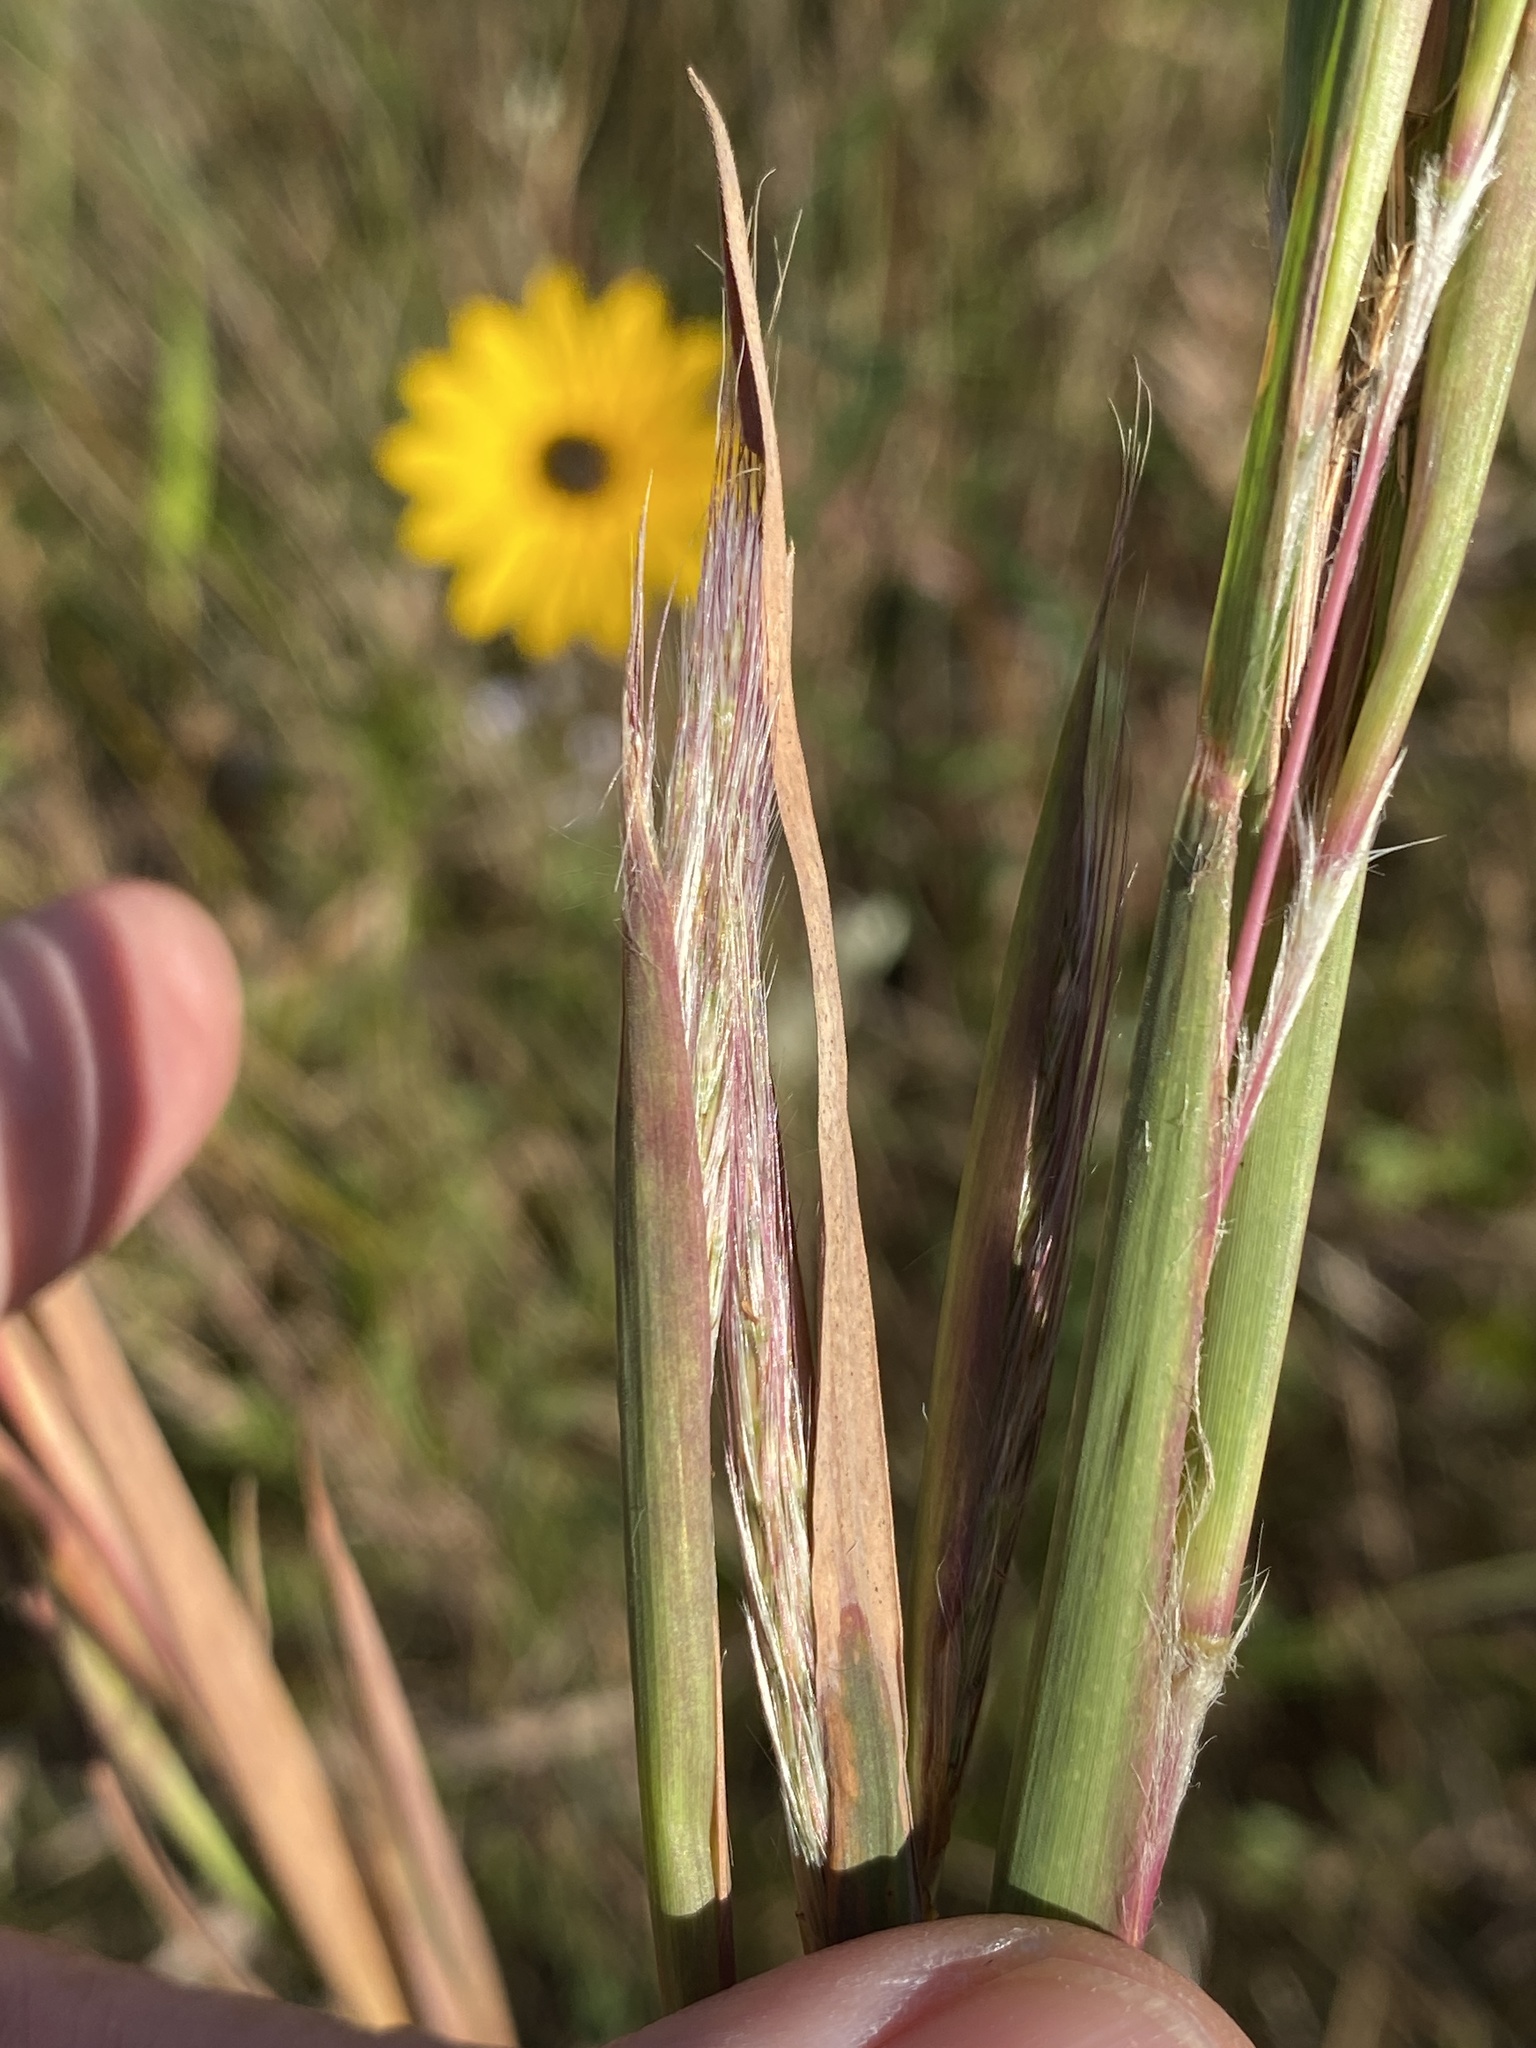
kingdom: Plantae
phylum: Tracheophyta
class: Liliopsida
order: Poales
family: Poaceae
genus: Andropogon
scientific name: Andropogon mohrii
